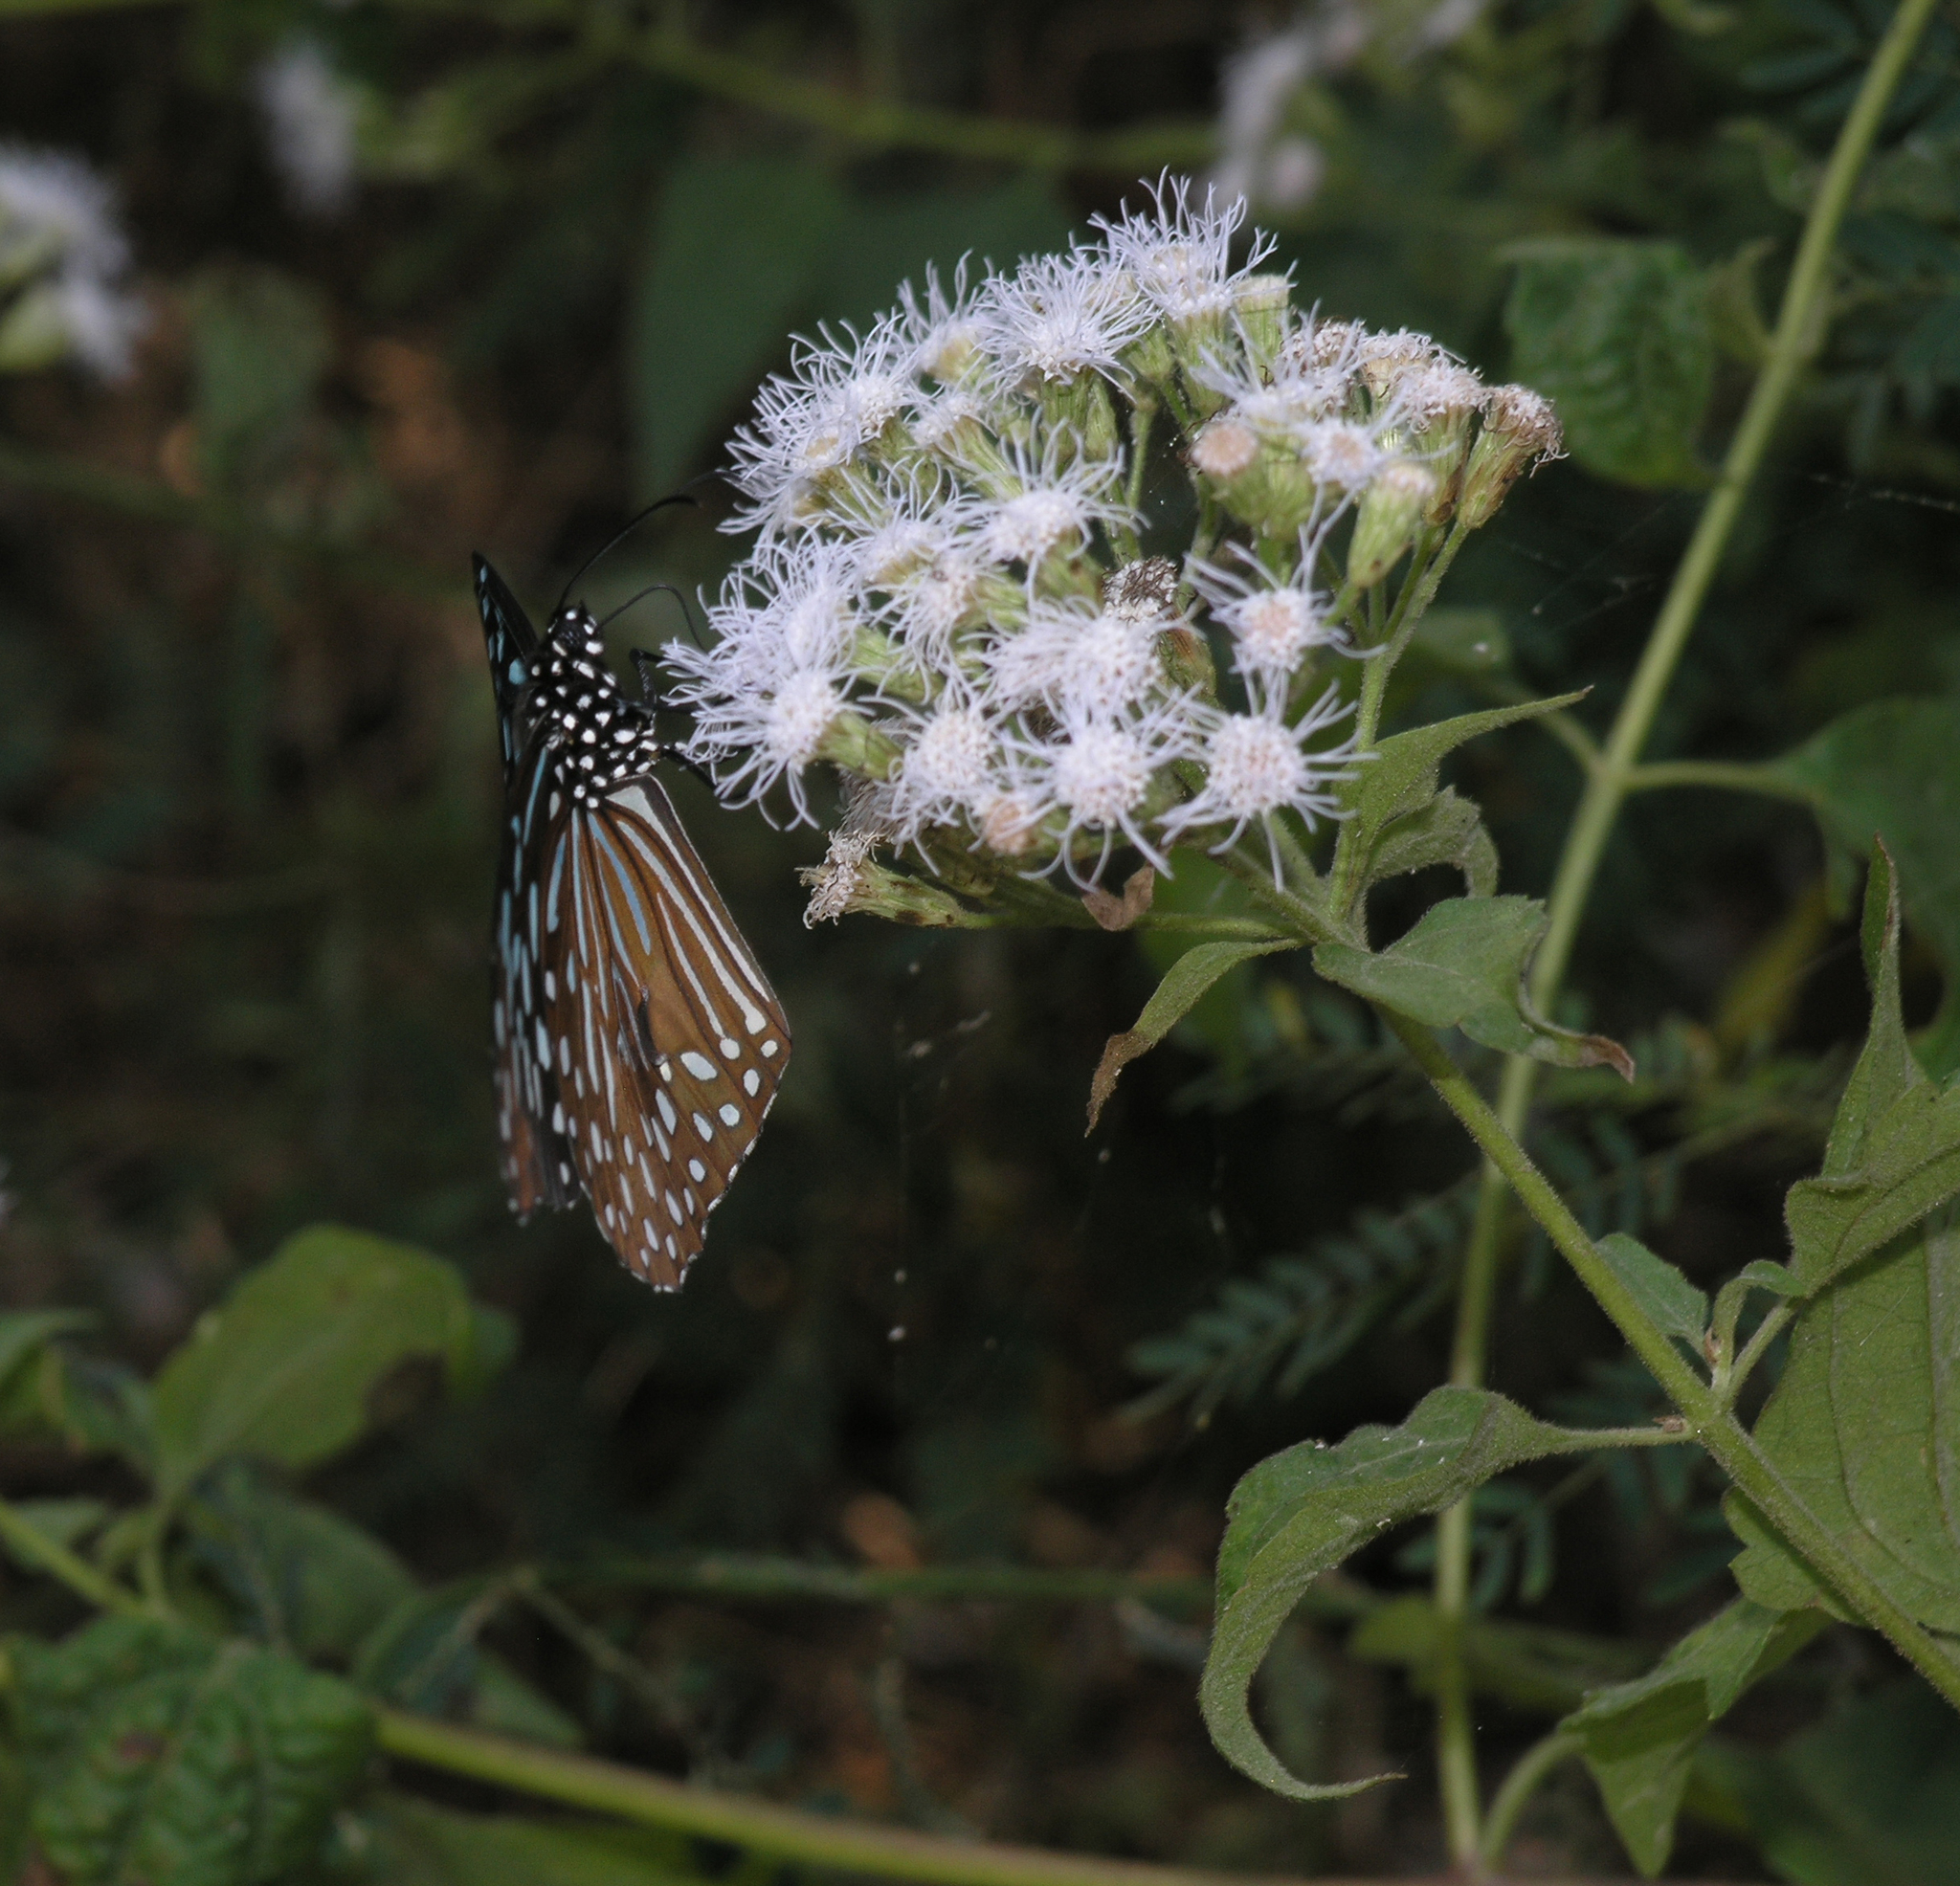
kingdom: Plantae
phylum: Tracheophyta
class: Magnoliopsida
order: Asterales
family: Asteraceae
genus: Chromolaena
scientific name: Chromolaena odorata
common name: Siamweed
